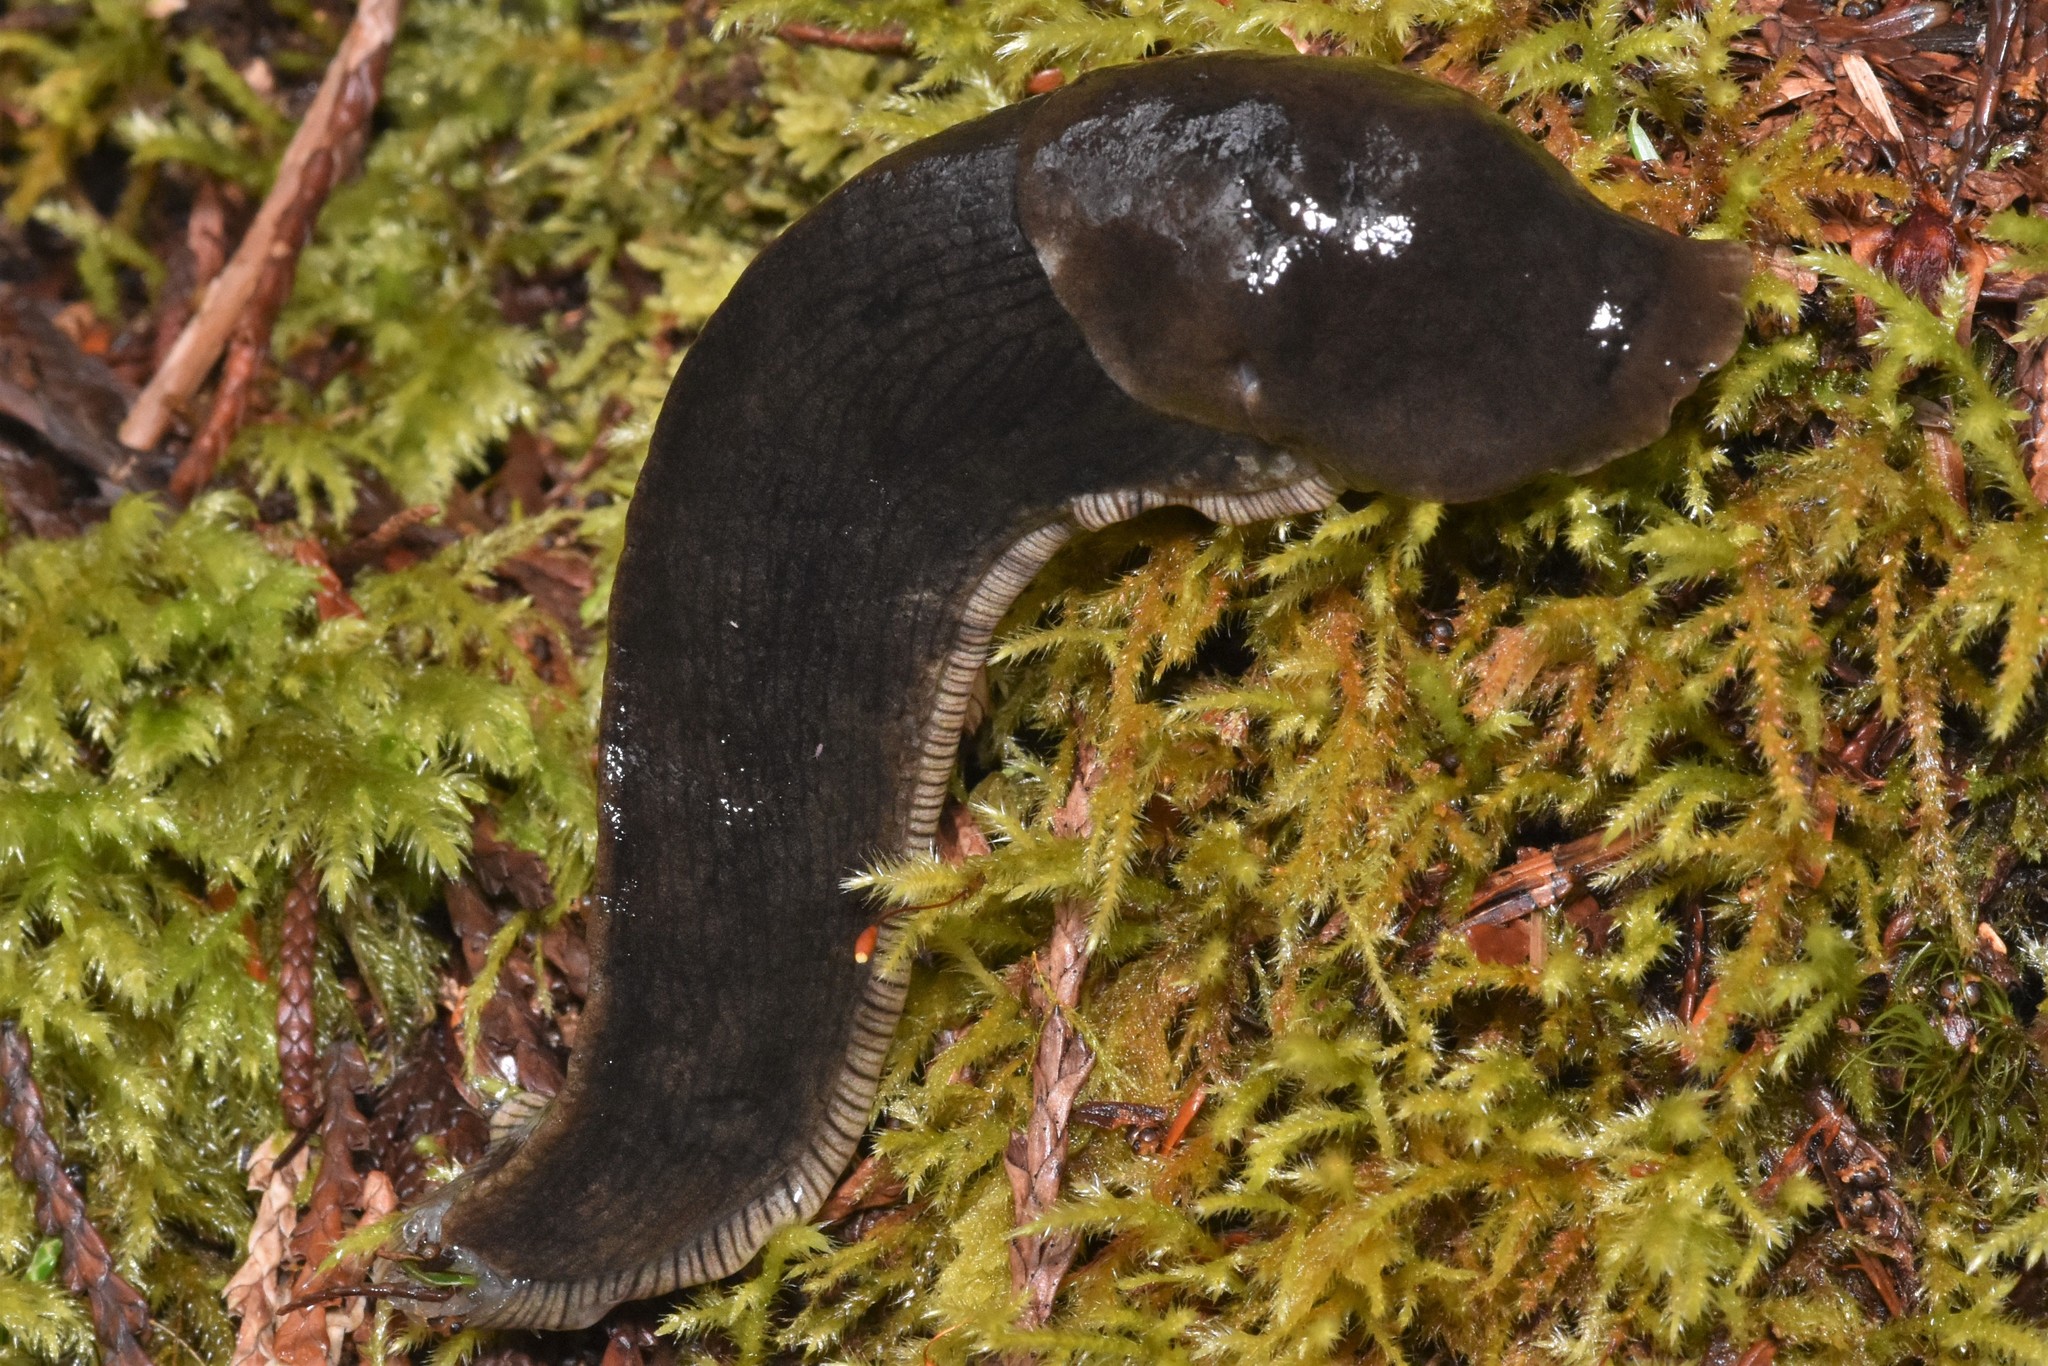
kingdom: Animalia
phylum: Mollusca
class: Gastropoda
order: Stylommatophora
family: Ariolimacidae
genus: Ariolimax
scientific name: Ariolimax columbianus
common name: Pacific banana slug
